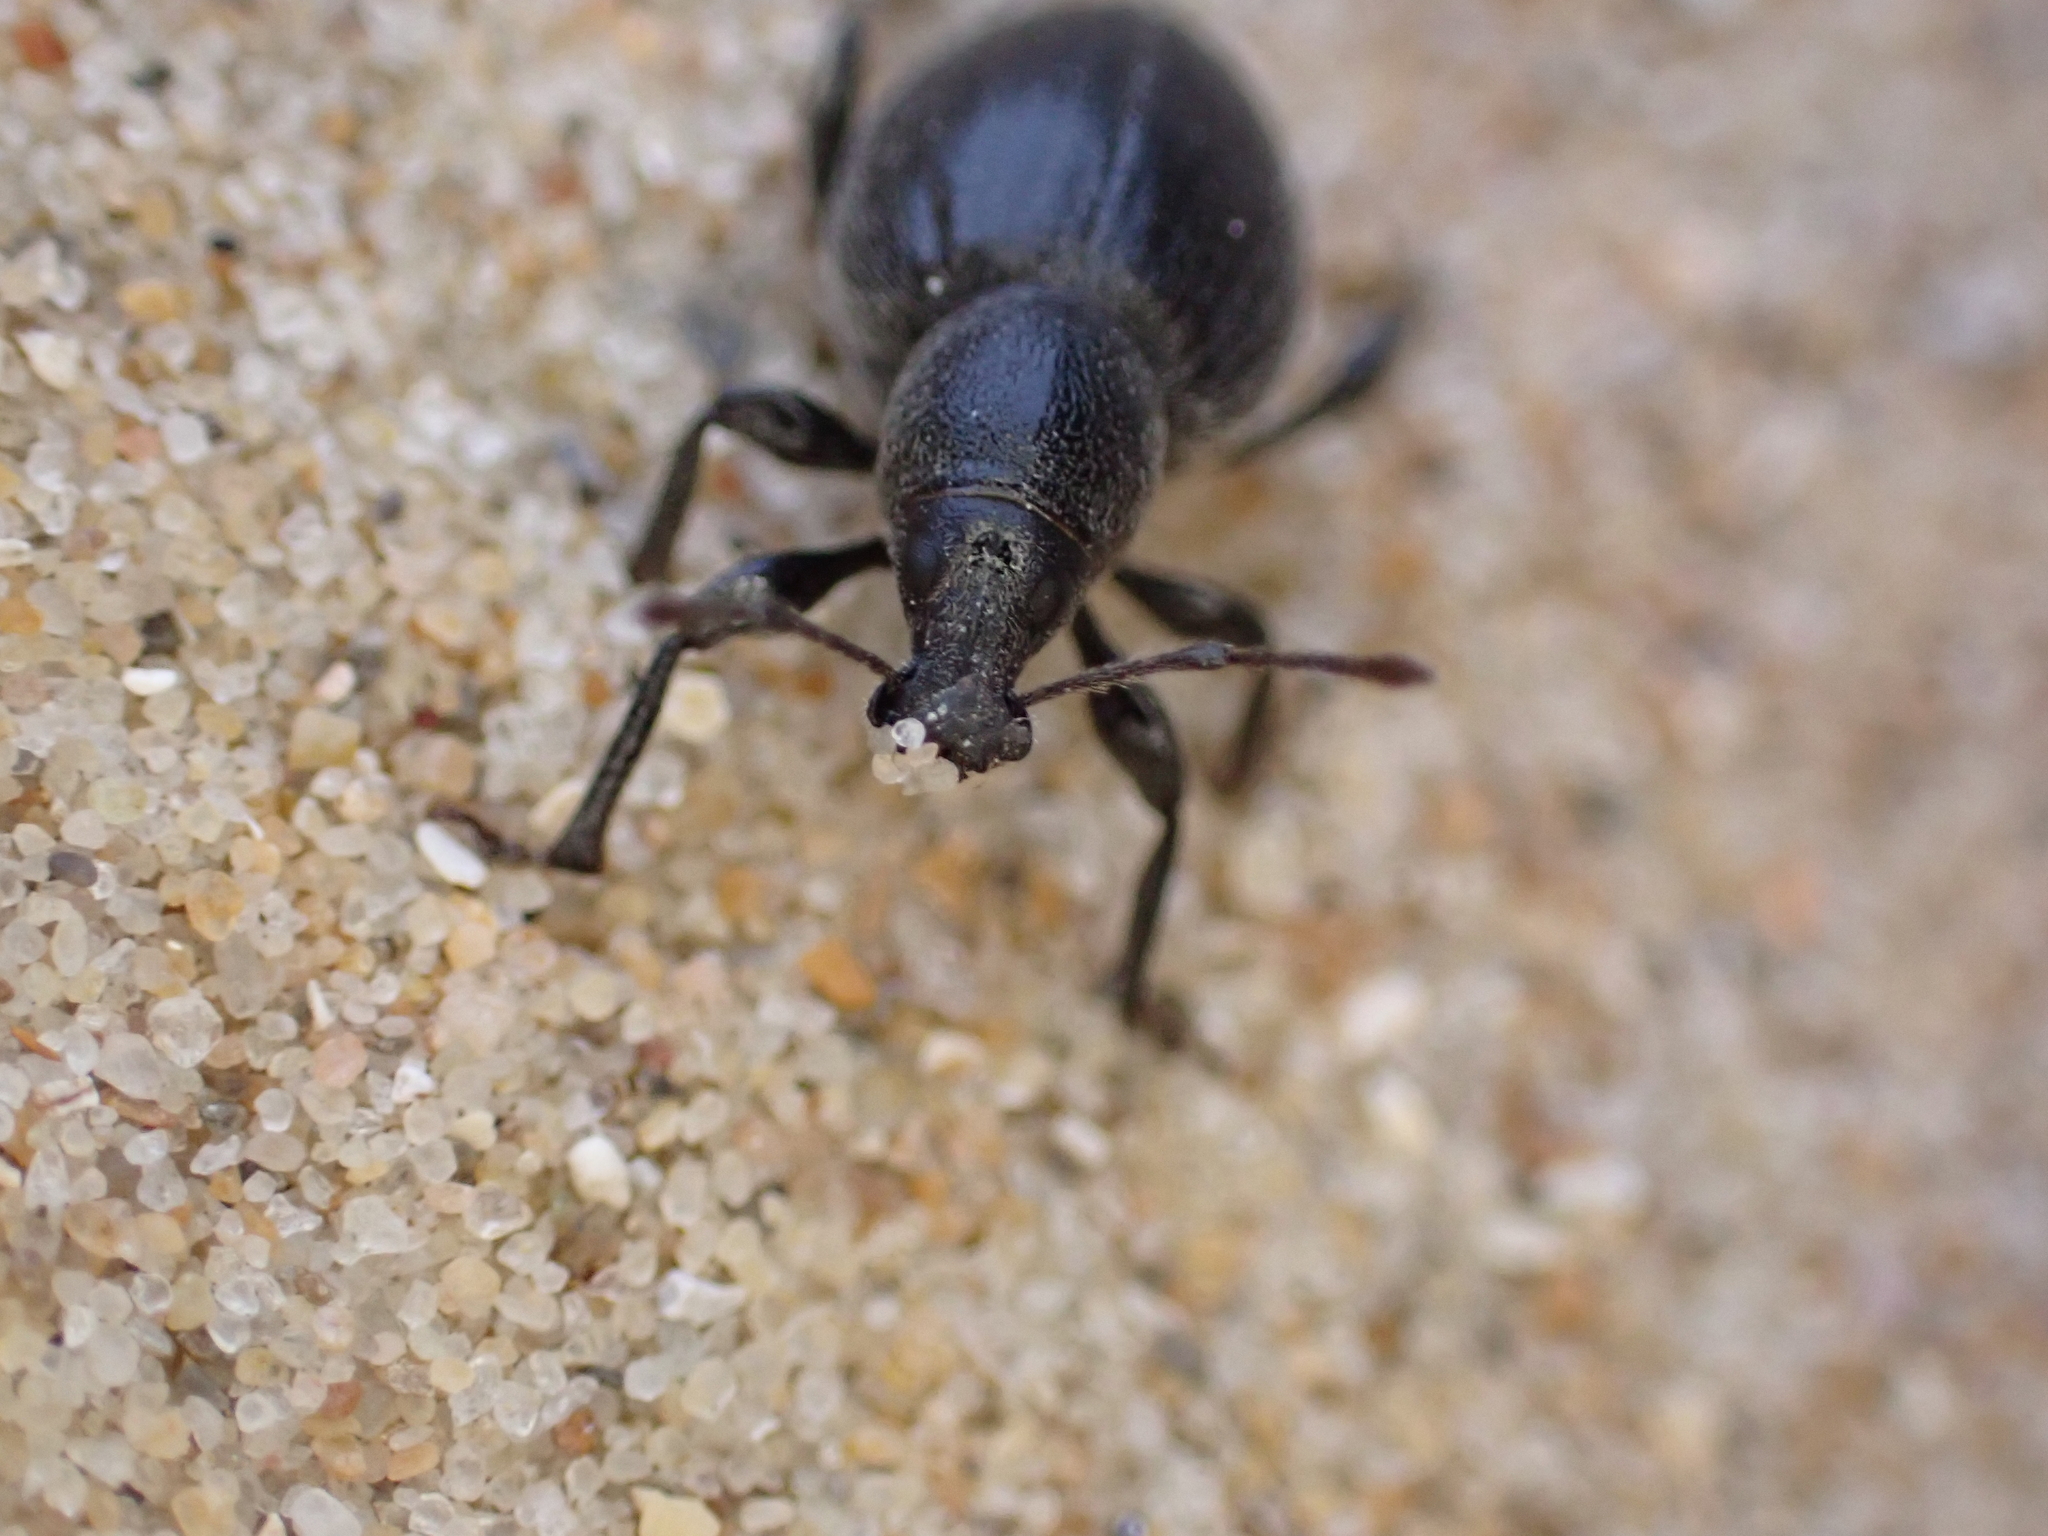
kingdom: Animalia
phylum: Arthropoda
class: Insecta
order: Coleoptera
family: Curculionidae
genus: Otiorhynchus
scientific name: Otiorhynchus atroapterus
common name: Black marram weevil
